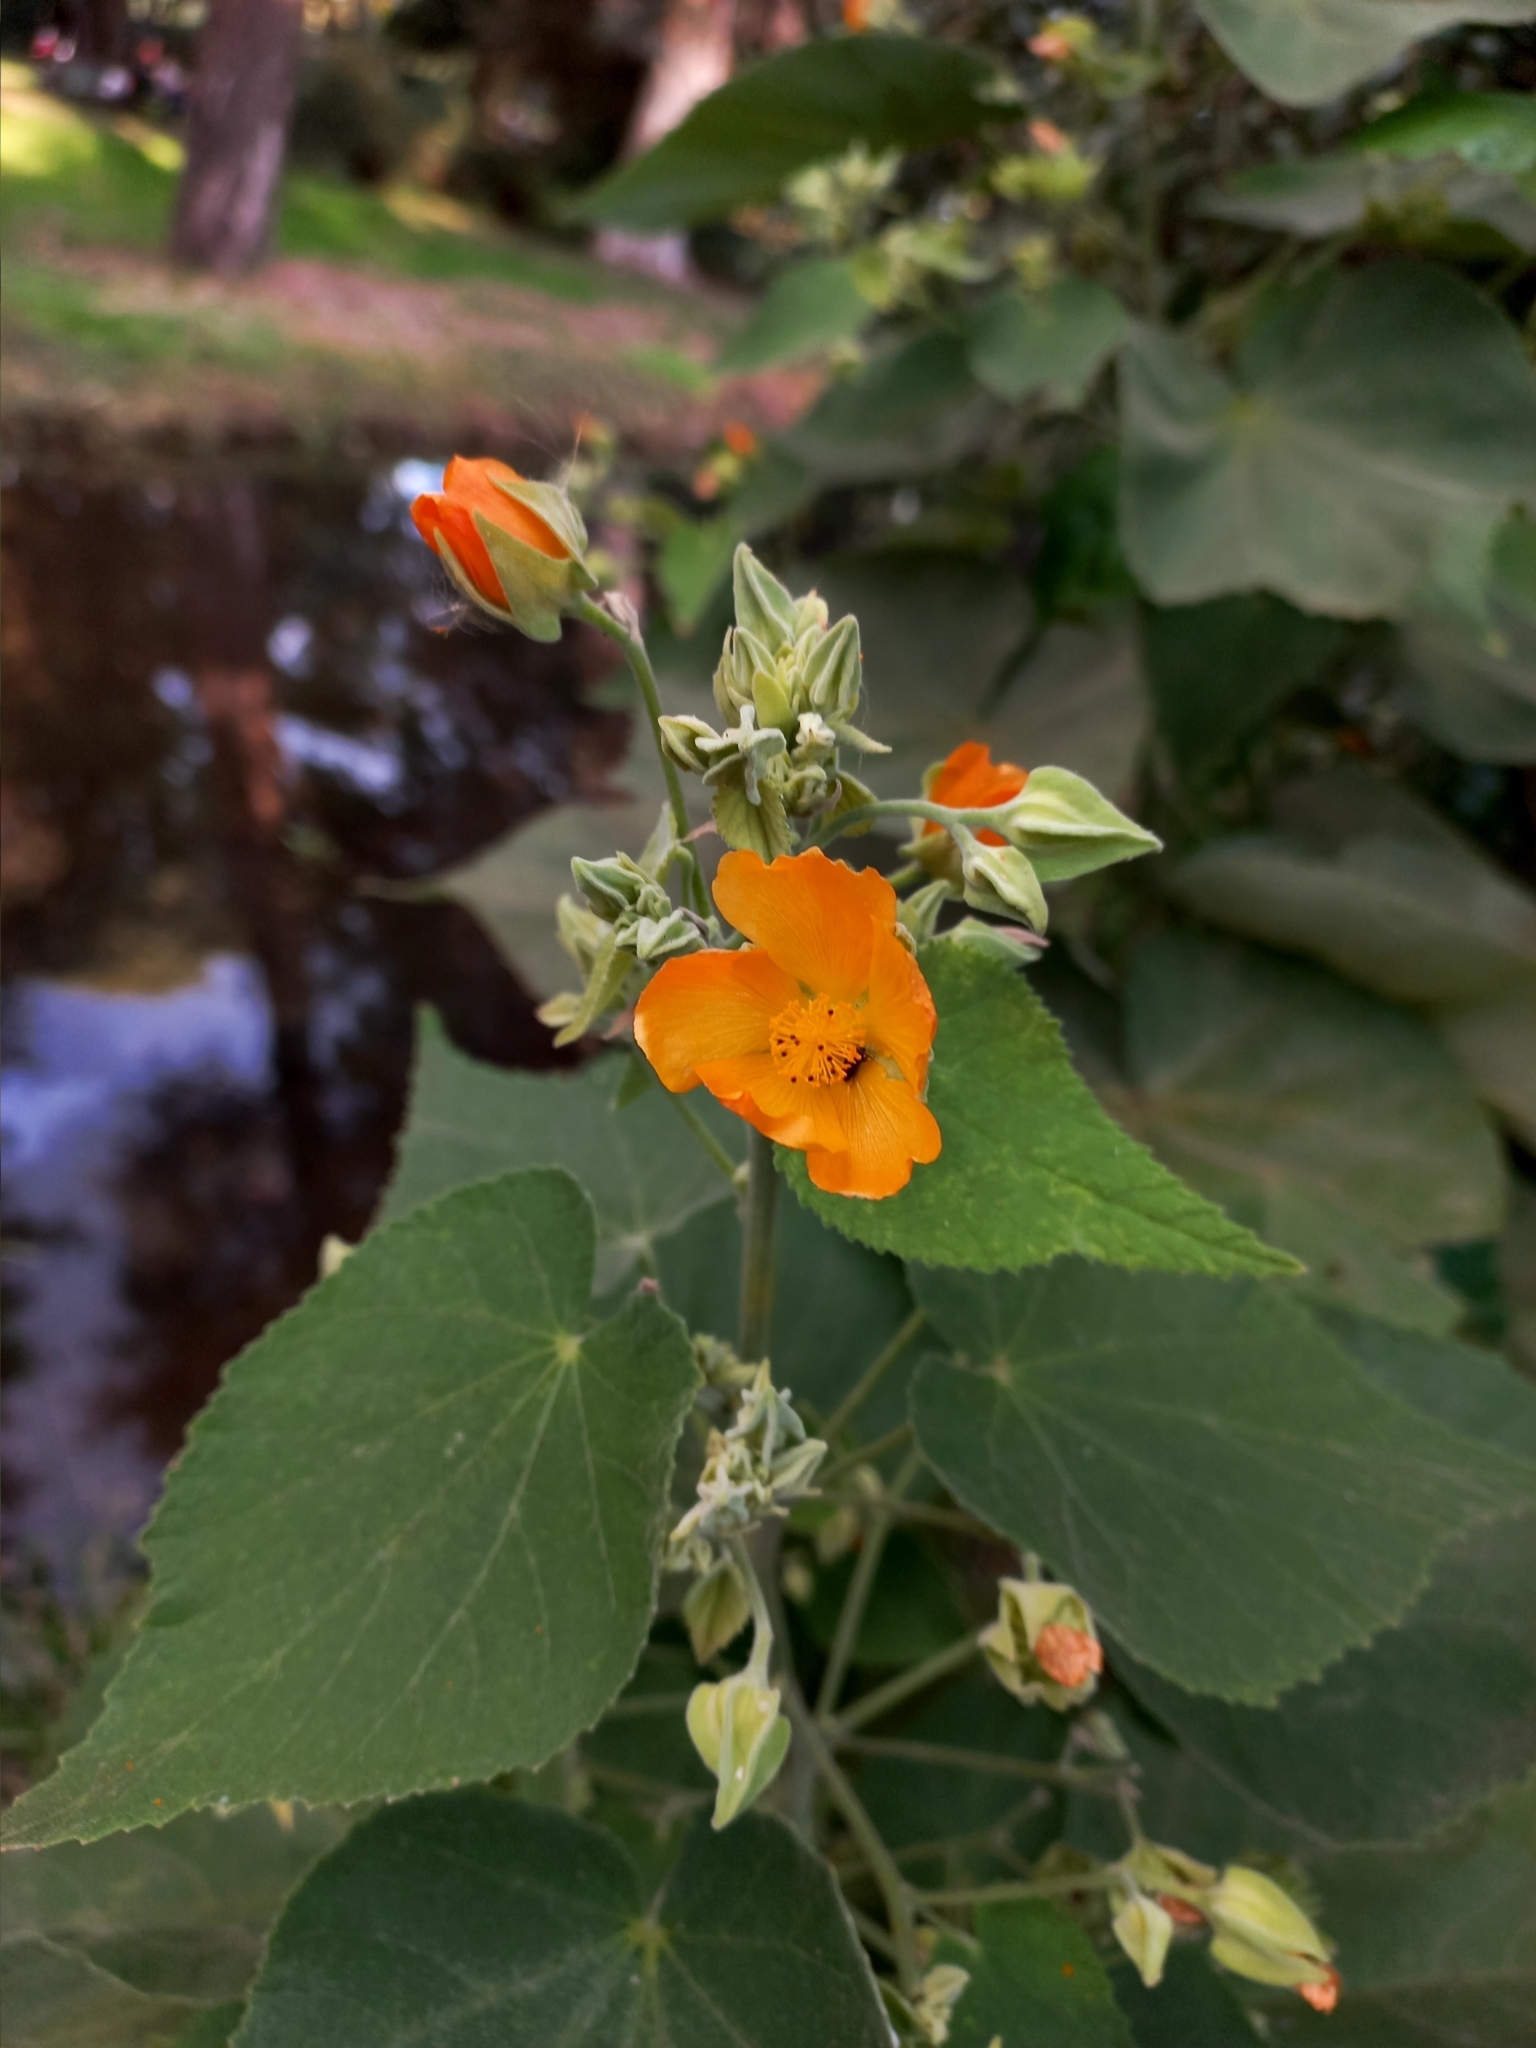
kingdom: Plantae
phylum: Tracheophyta
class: Magnoliopsida
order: Malvales
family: Malvaceae
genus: Abutilon
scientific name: Abutilon grandifolium
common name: Hairy abutilon
